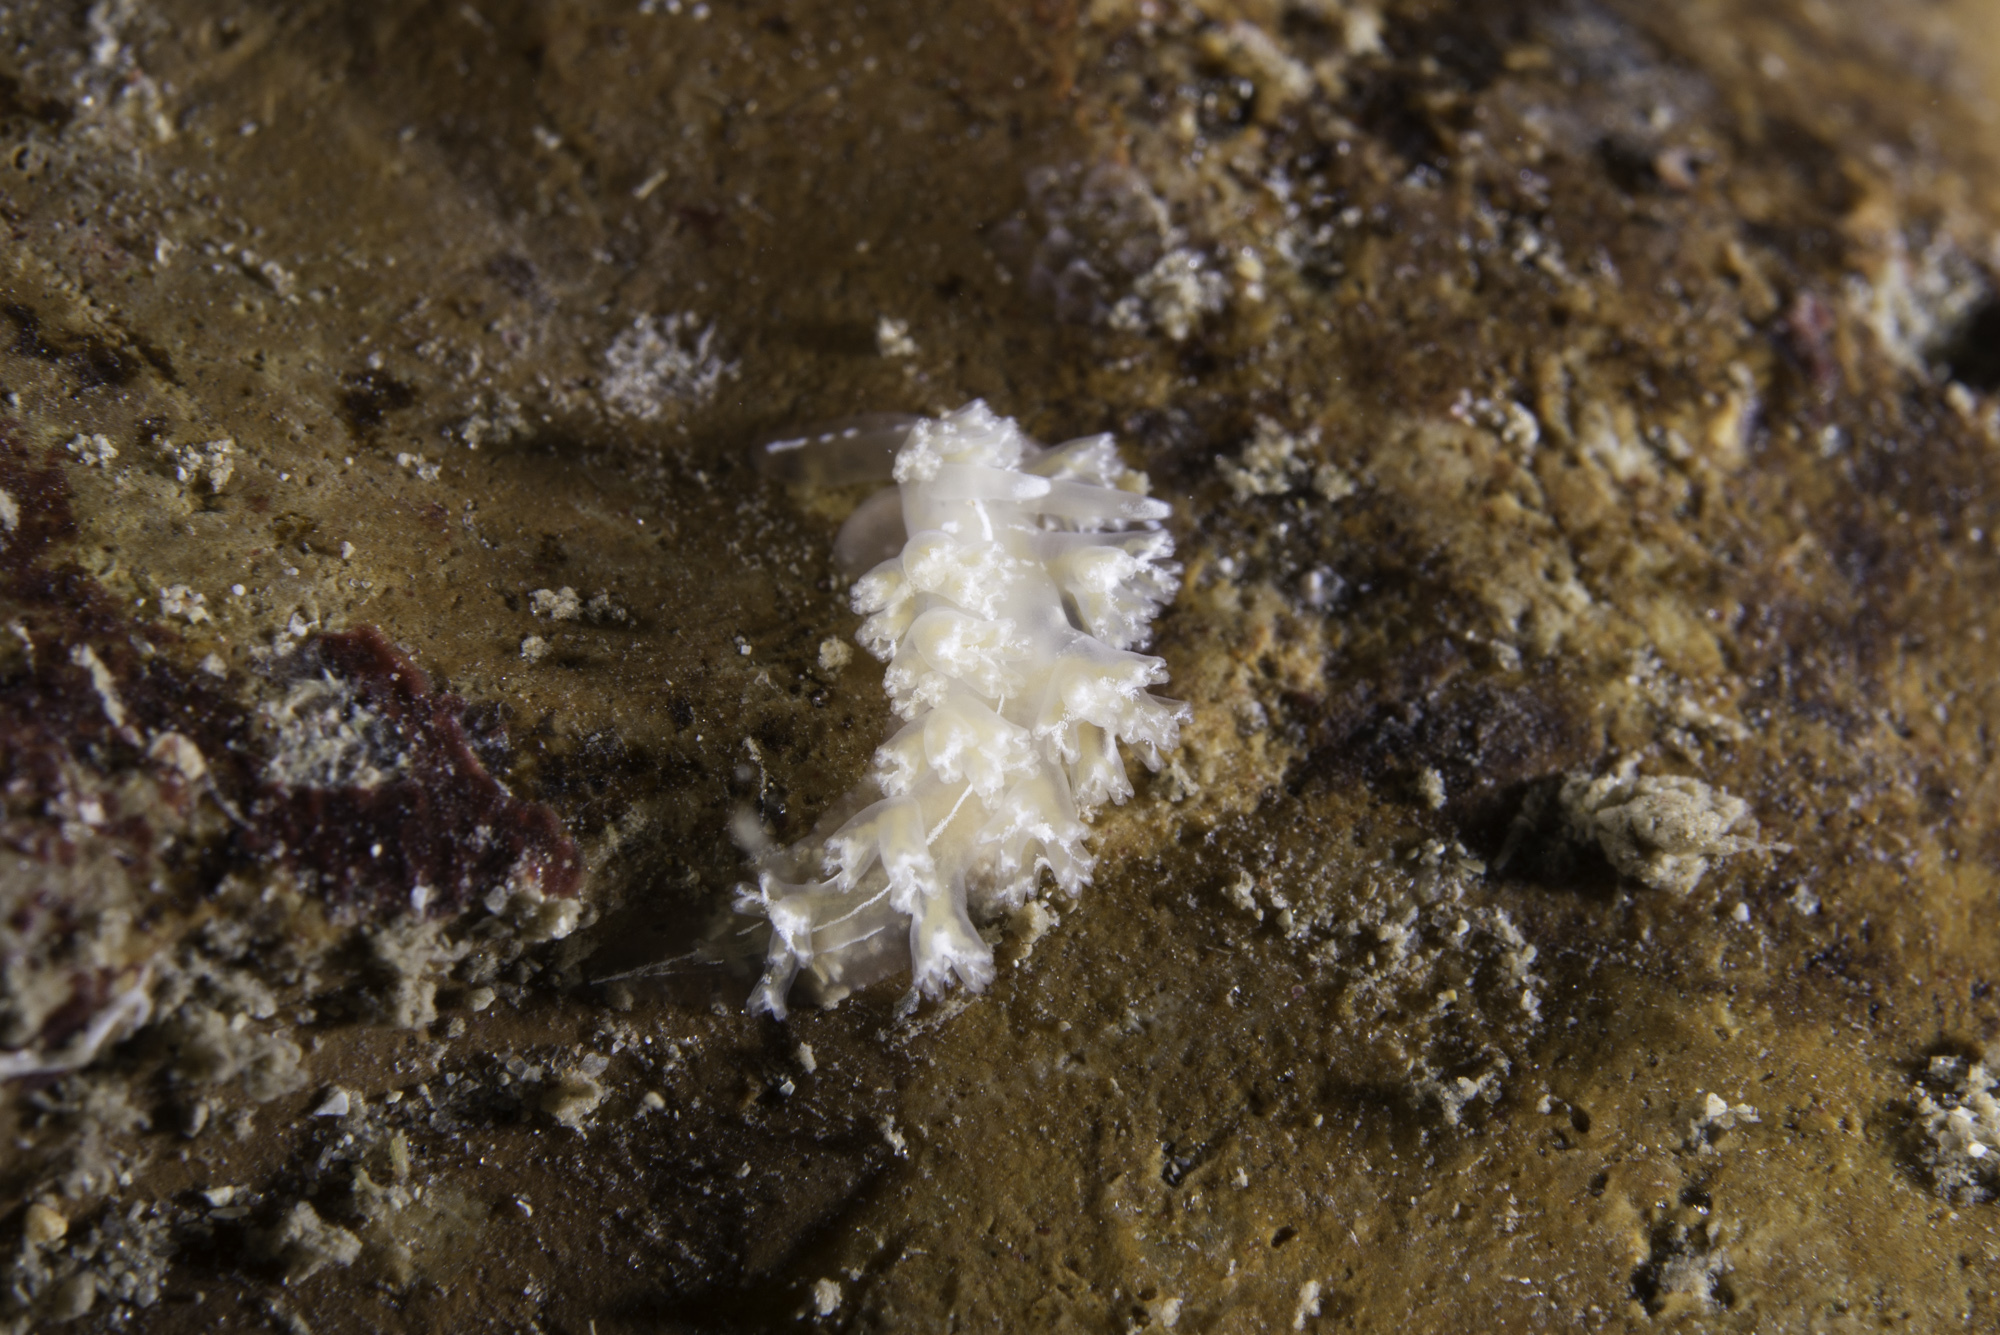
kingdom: Animalia
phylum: Mollusca
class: Gastropoda
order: Nudibranchia
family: Heroidae
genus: Hero
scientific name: Hero formosa
